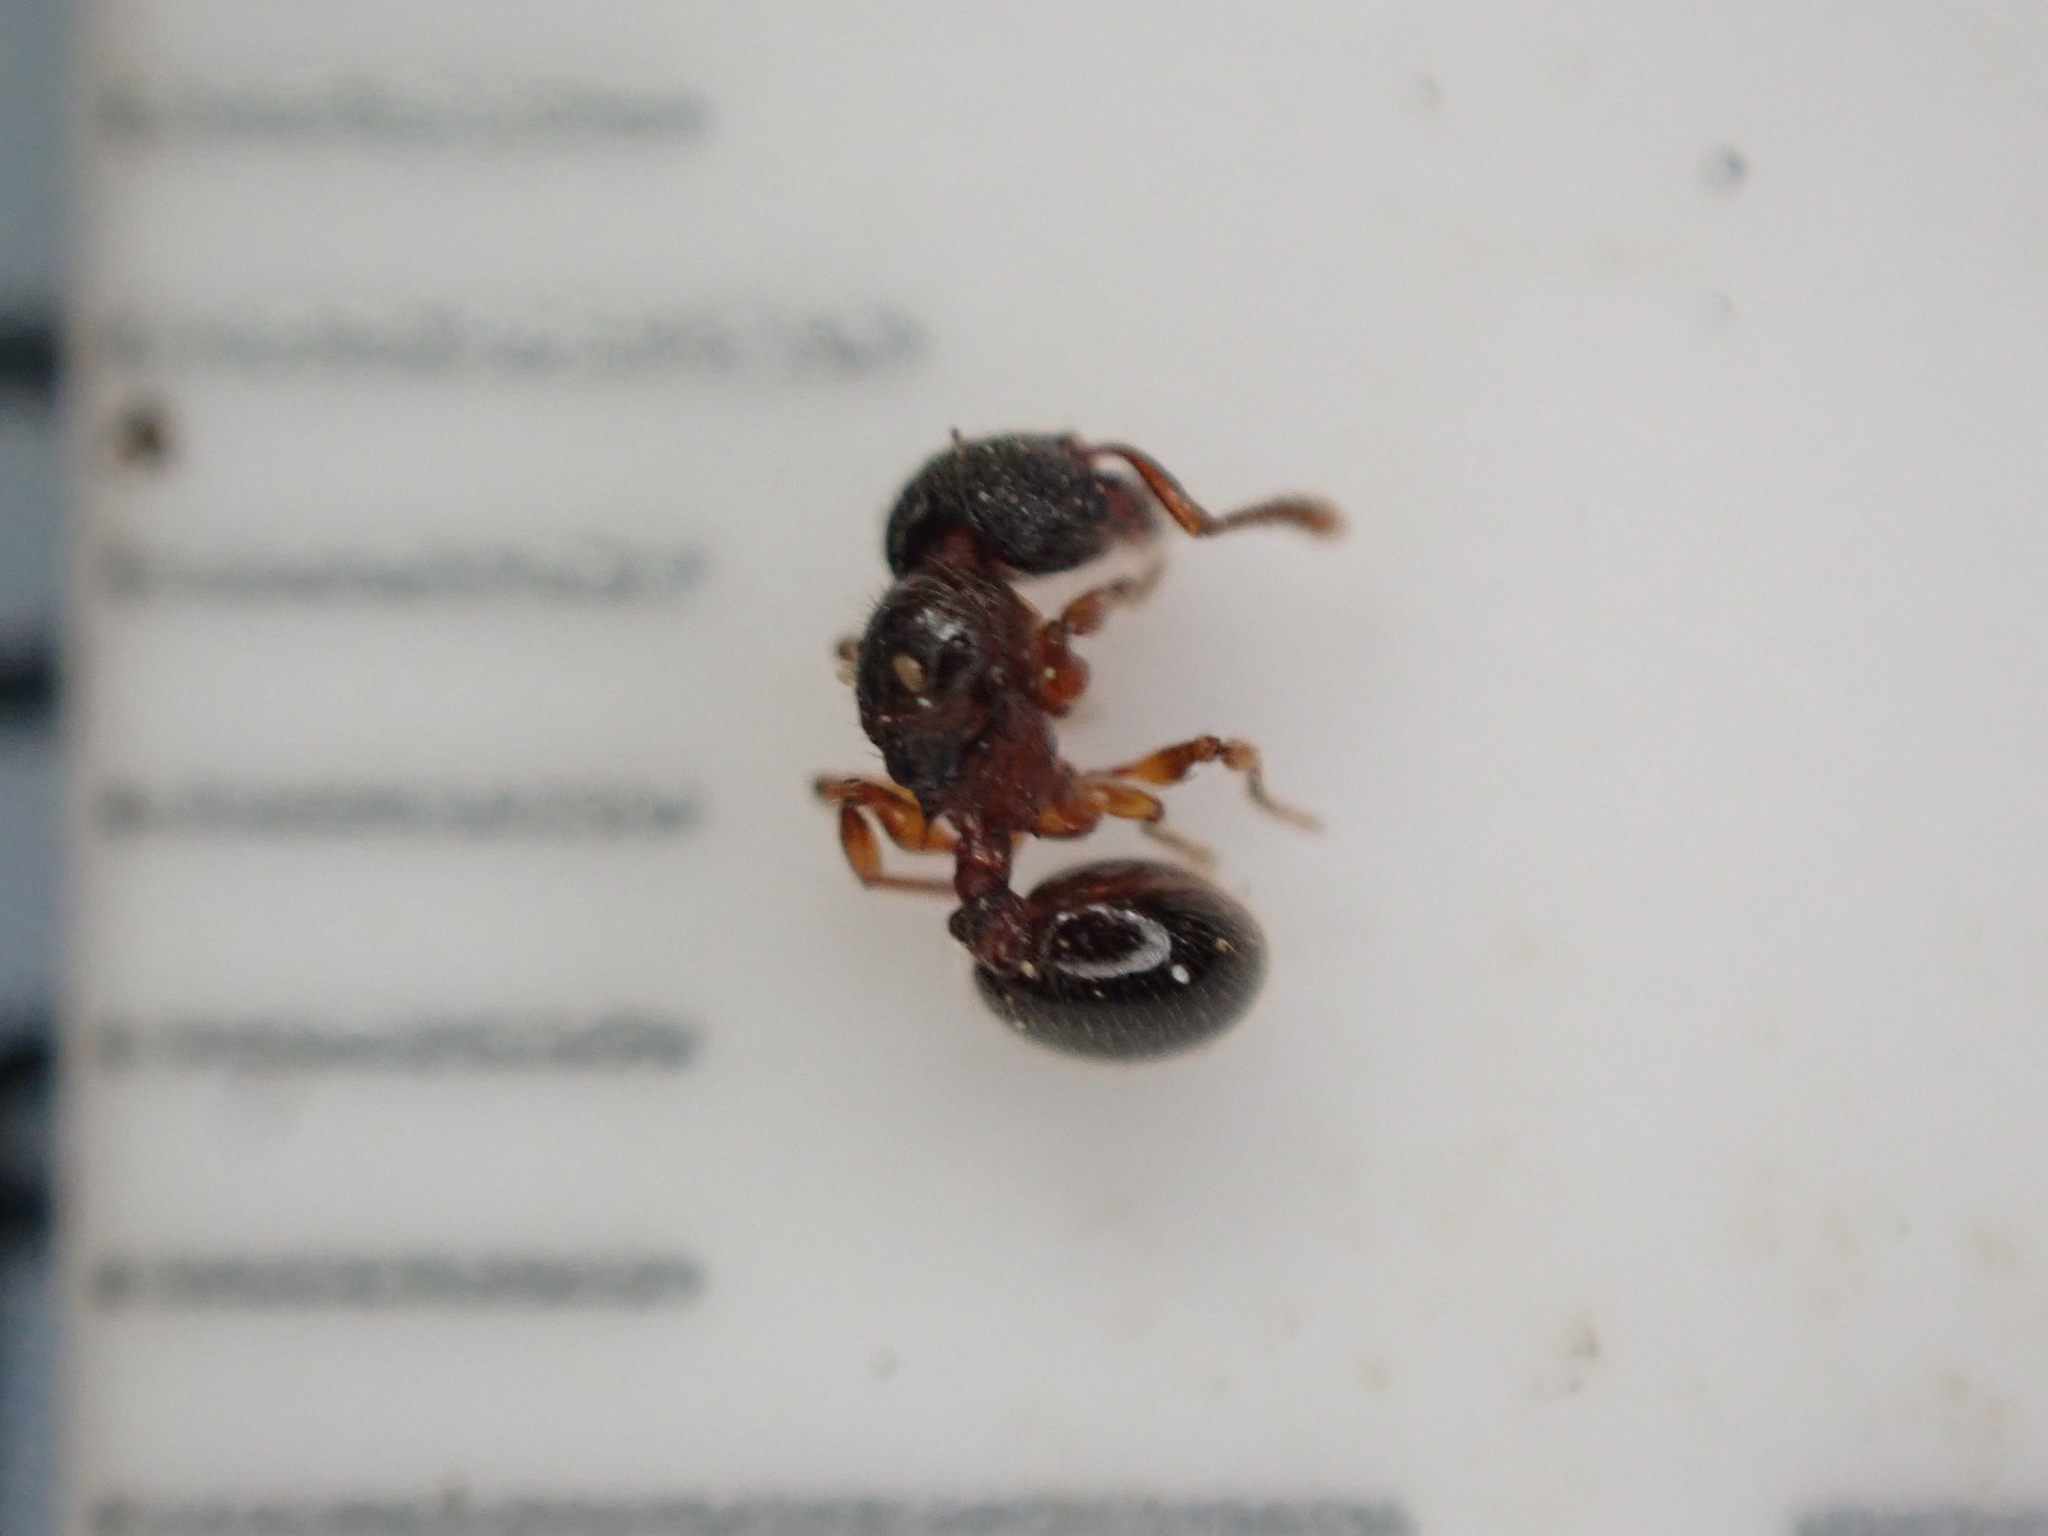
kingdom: Animalia
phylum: Arthropoda
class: Insecta
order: Hymenoptera
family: Formicidae
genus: Myrmecina
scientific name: Myrmecina americana
